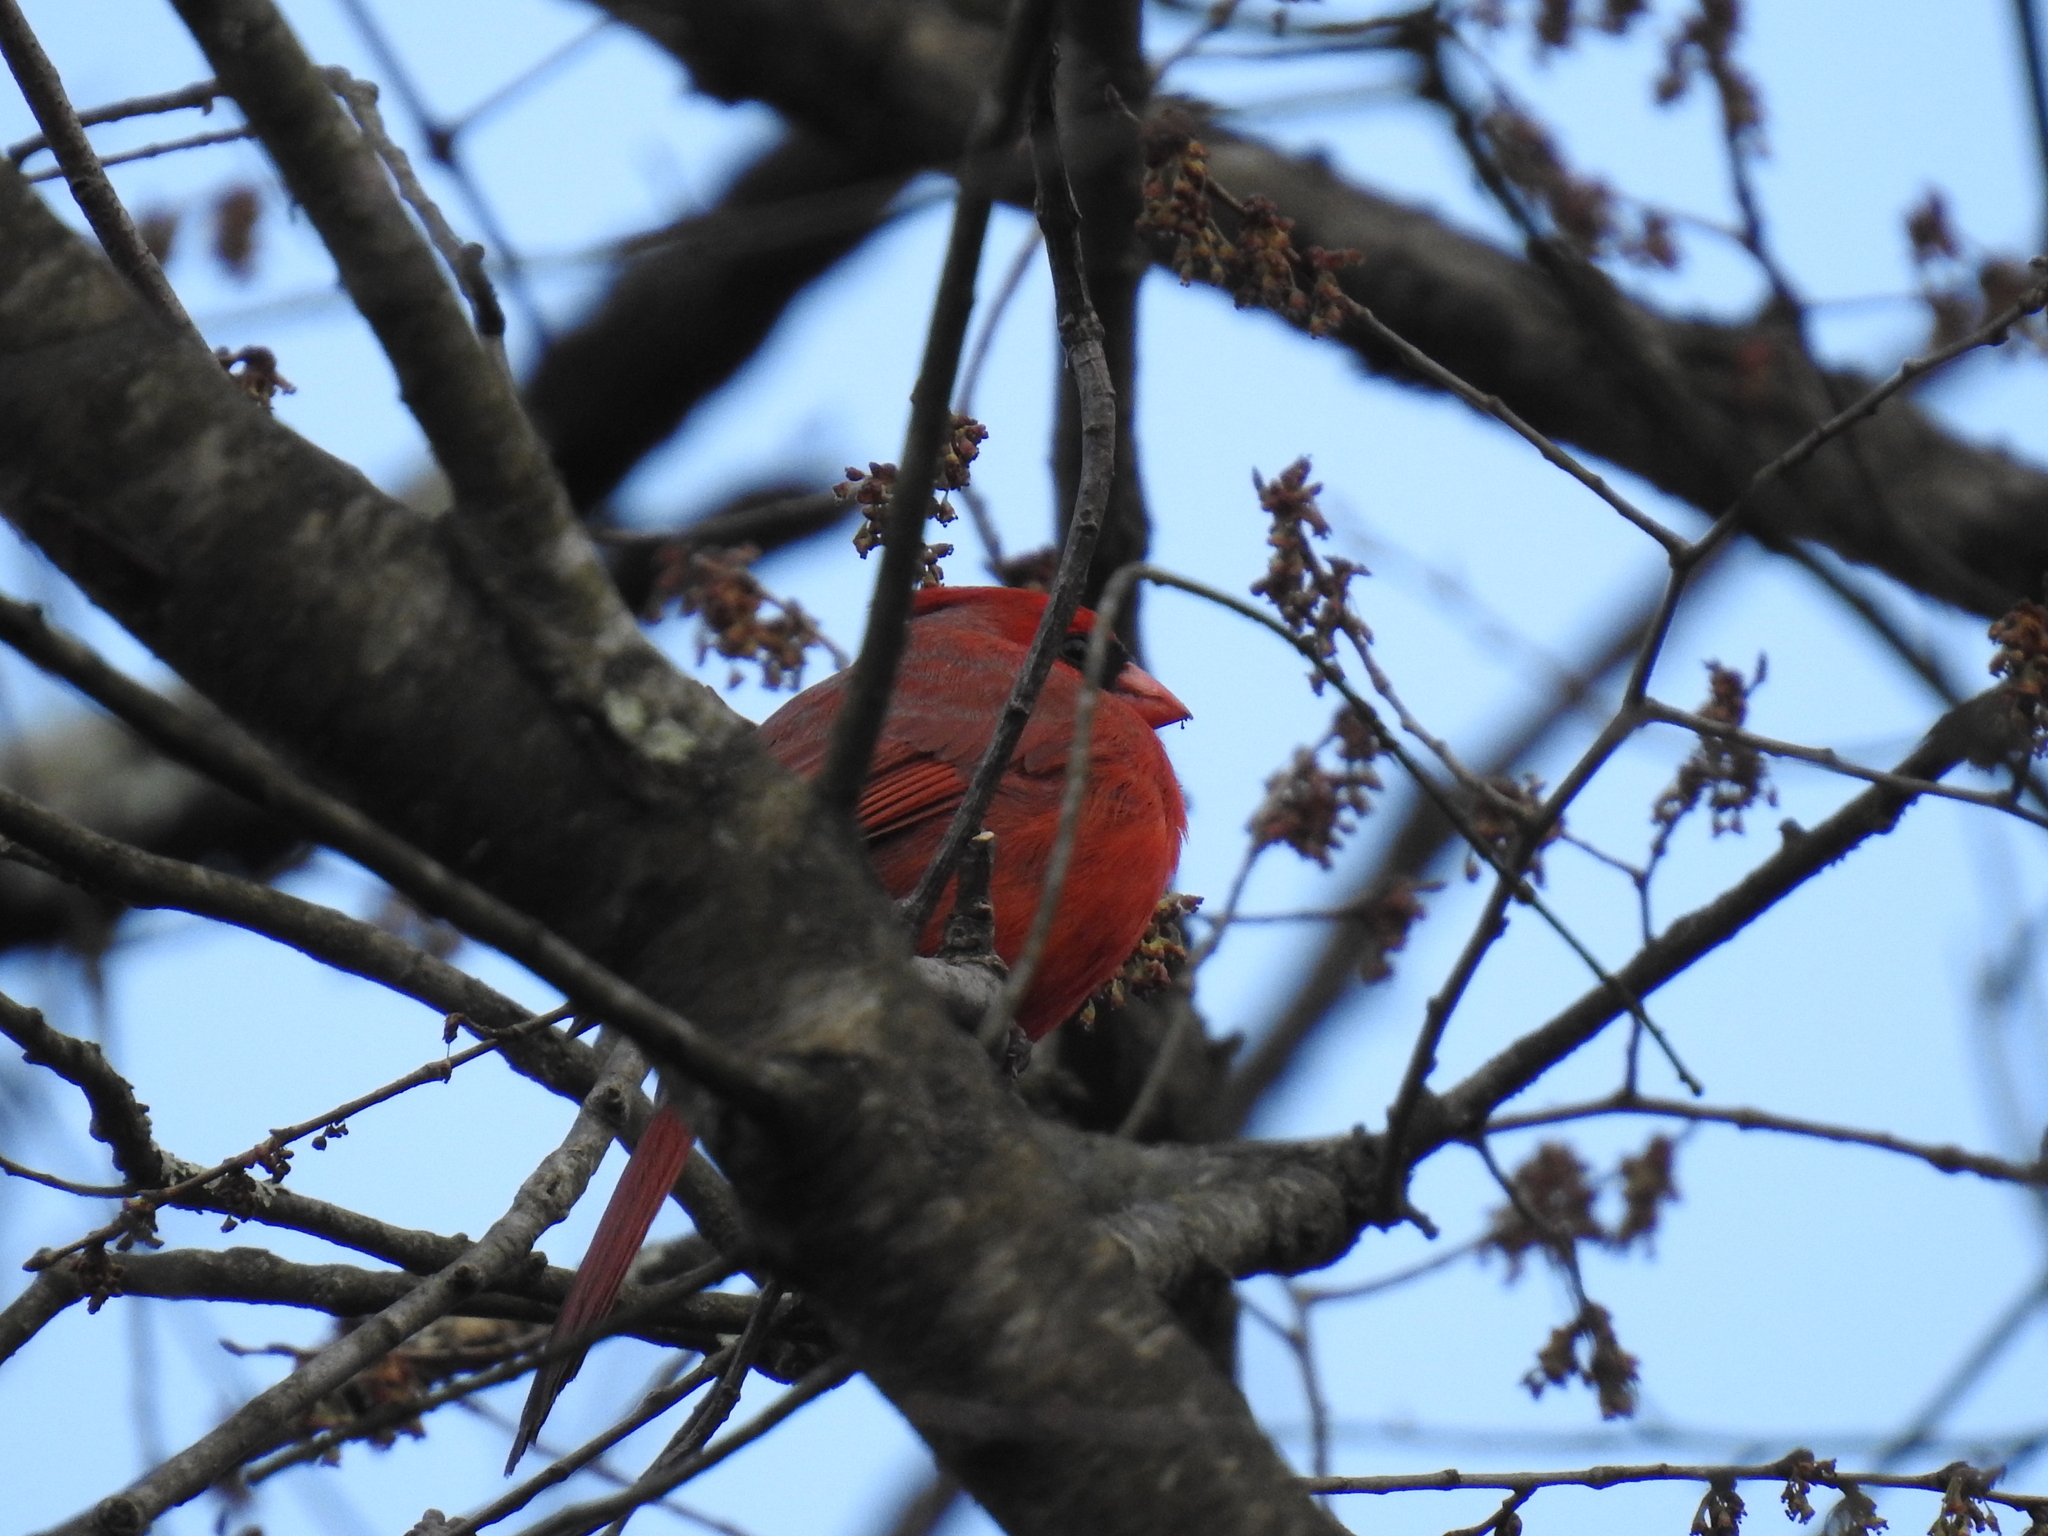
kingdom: Animalia
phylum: Chordata
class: Aves
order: Passeriformes
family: Cardinalidae
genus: Cardinalis
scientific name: Cardinalis cardinalis
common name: Northern cardinal
